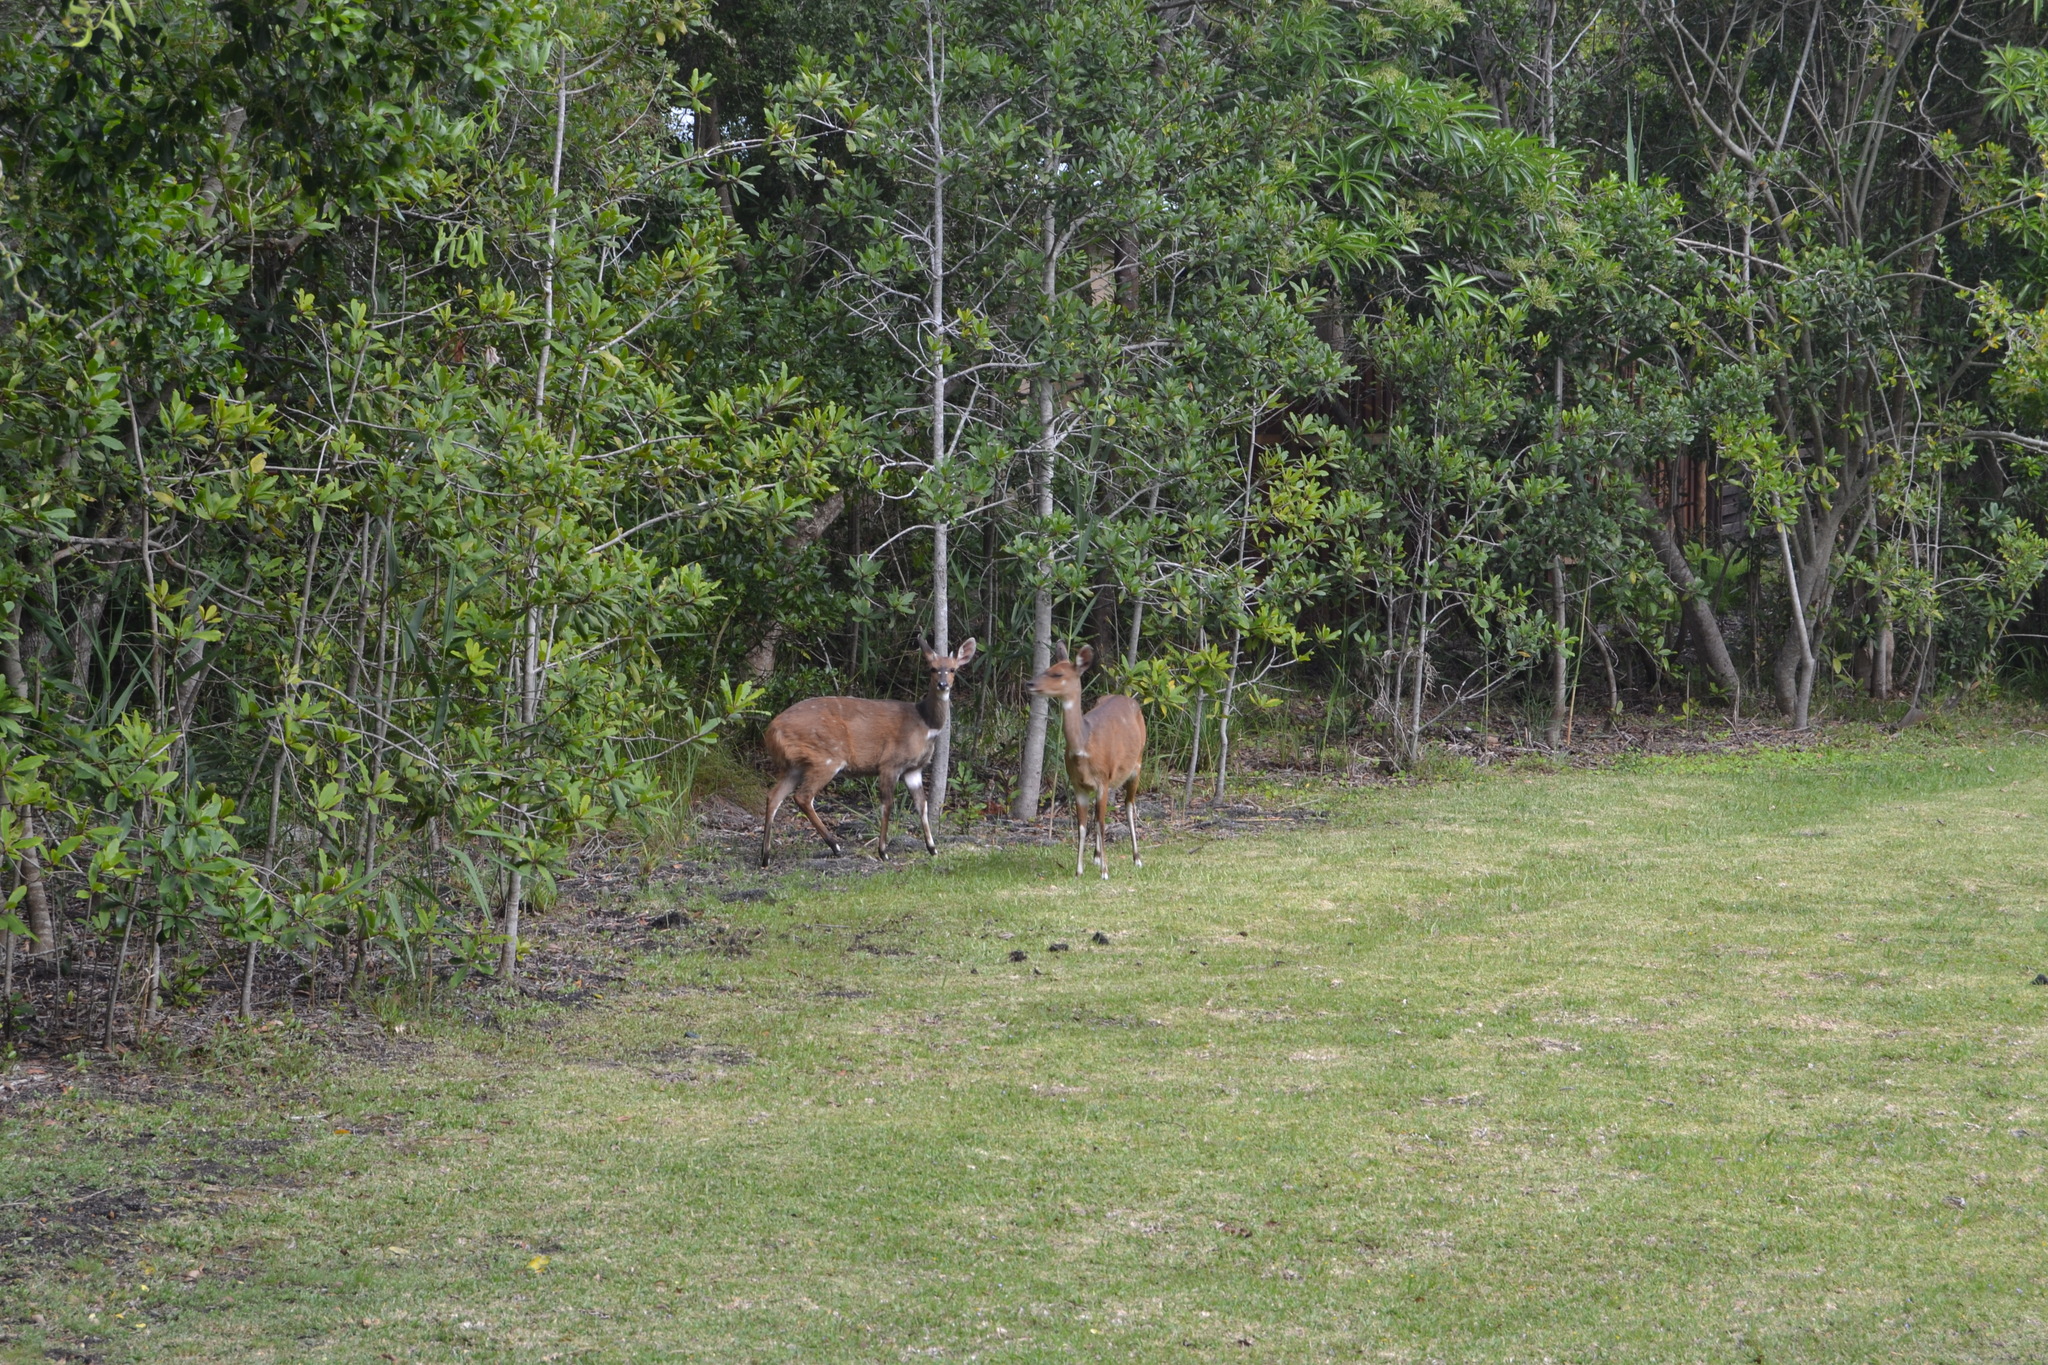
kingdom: Animalia
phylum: Chordata
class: Mammalia
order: Artiodactyla
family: Bovidae
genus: Tragelaphus
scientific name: Tragelaphus scriptus
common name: Bushbuck
